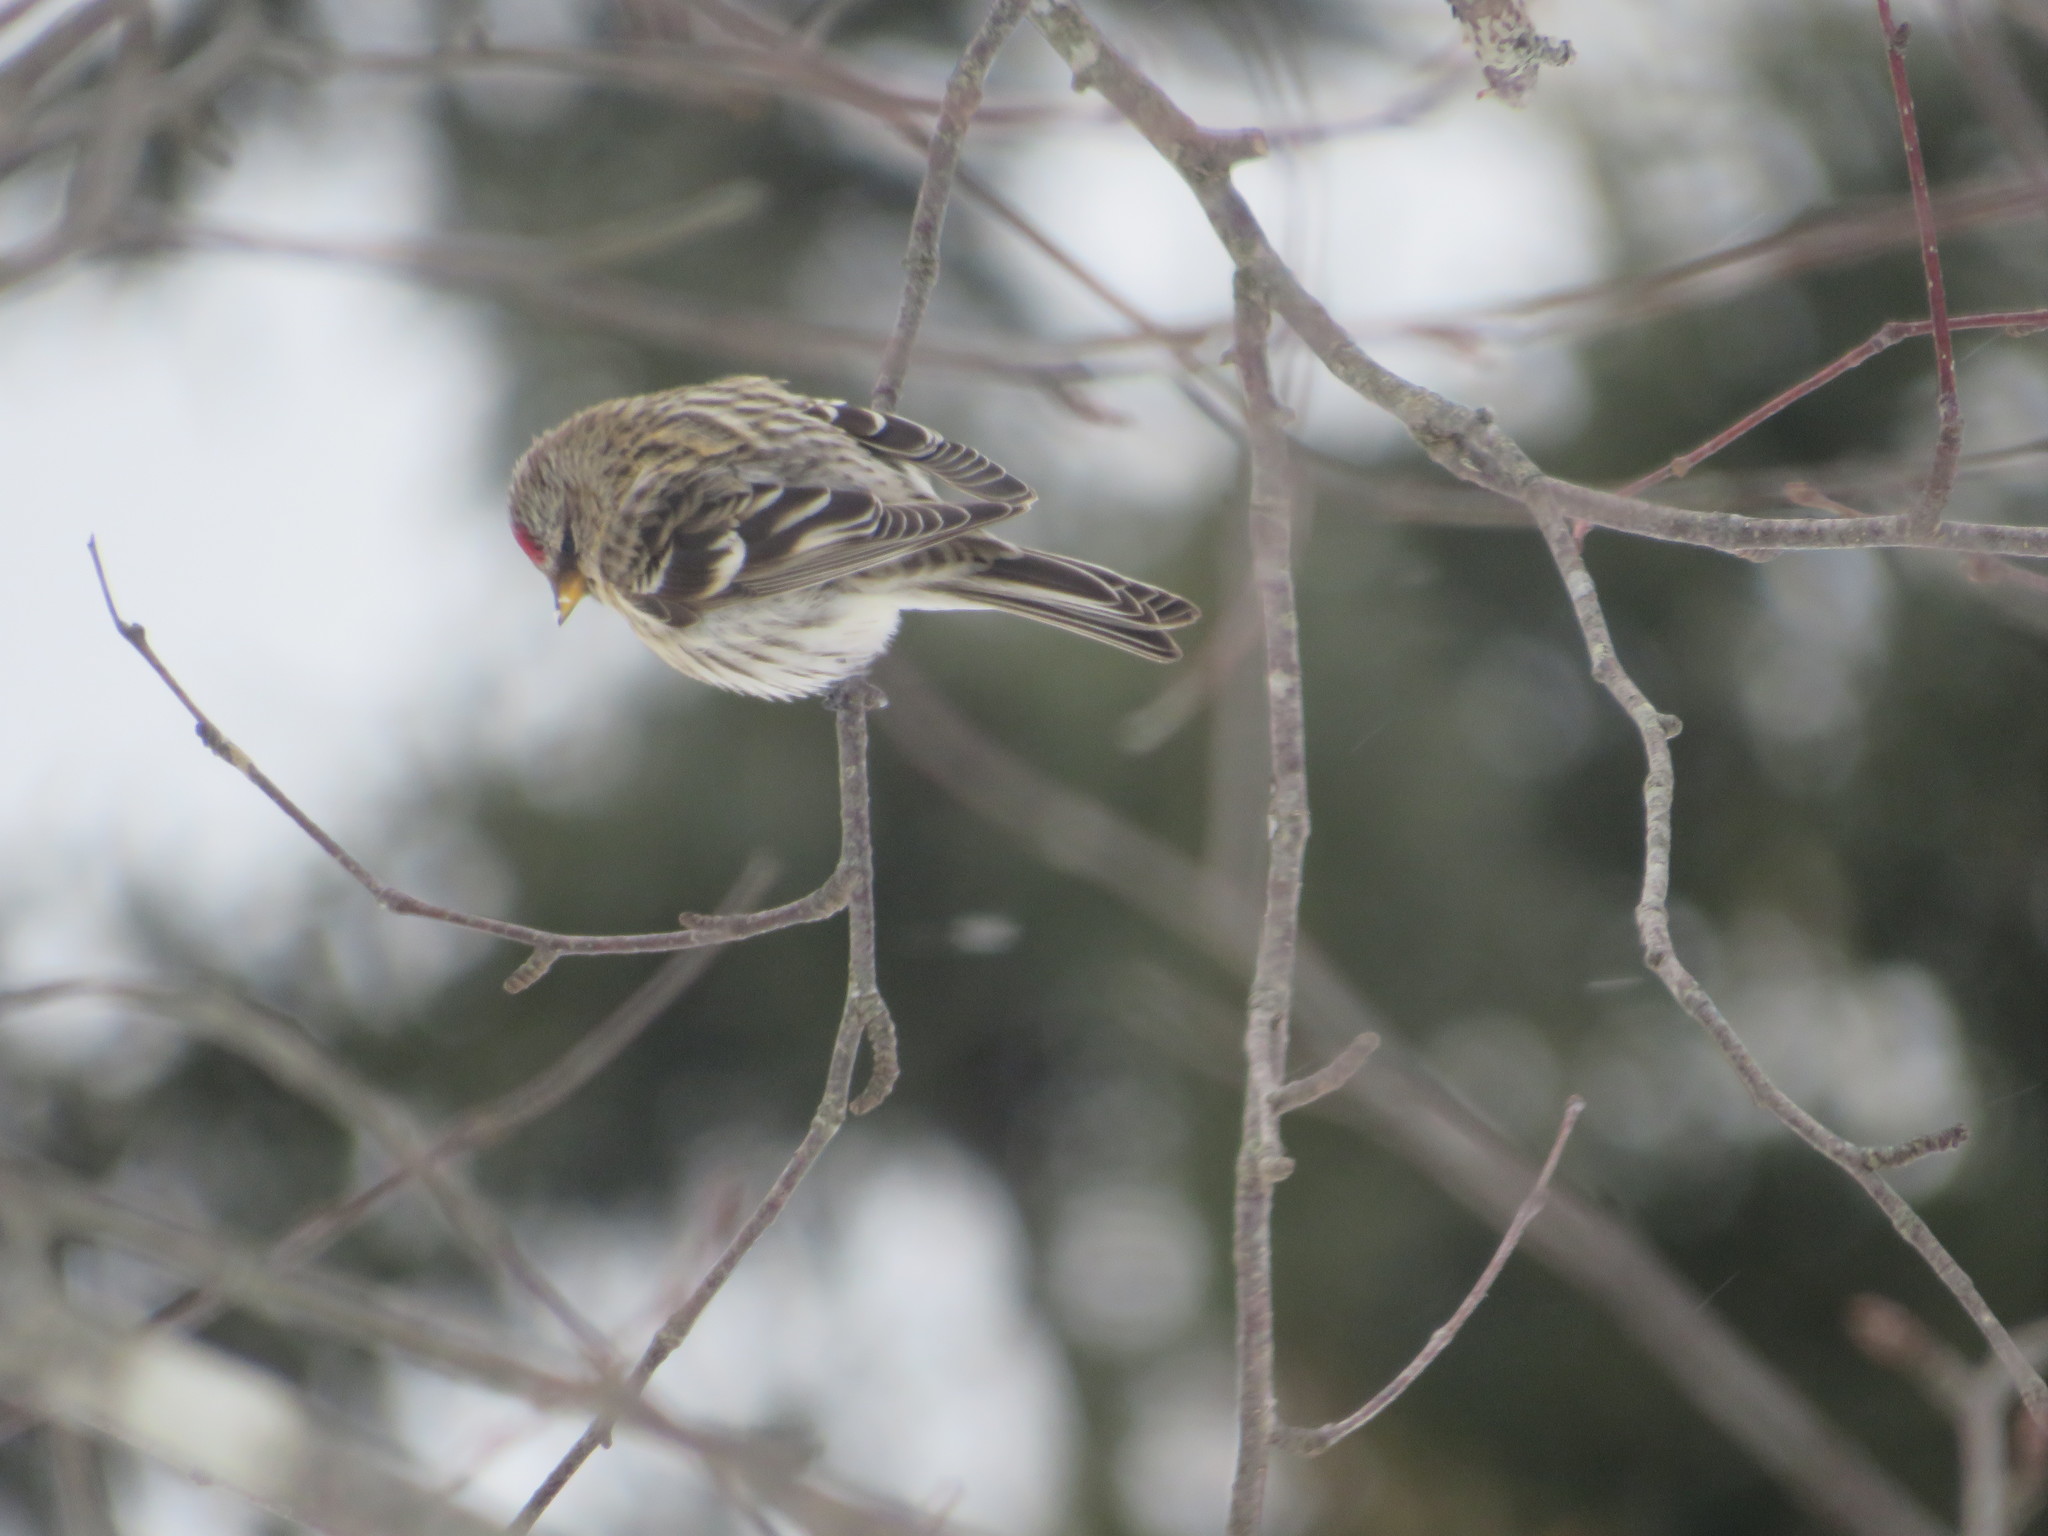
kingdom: Animalia
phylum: Chordata
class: Aves
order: Passeriformes
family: Fringillidae
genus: Acanthis
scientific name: Acanthis flammea
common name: Common redpoll
